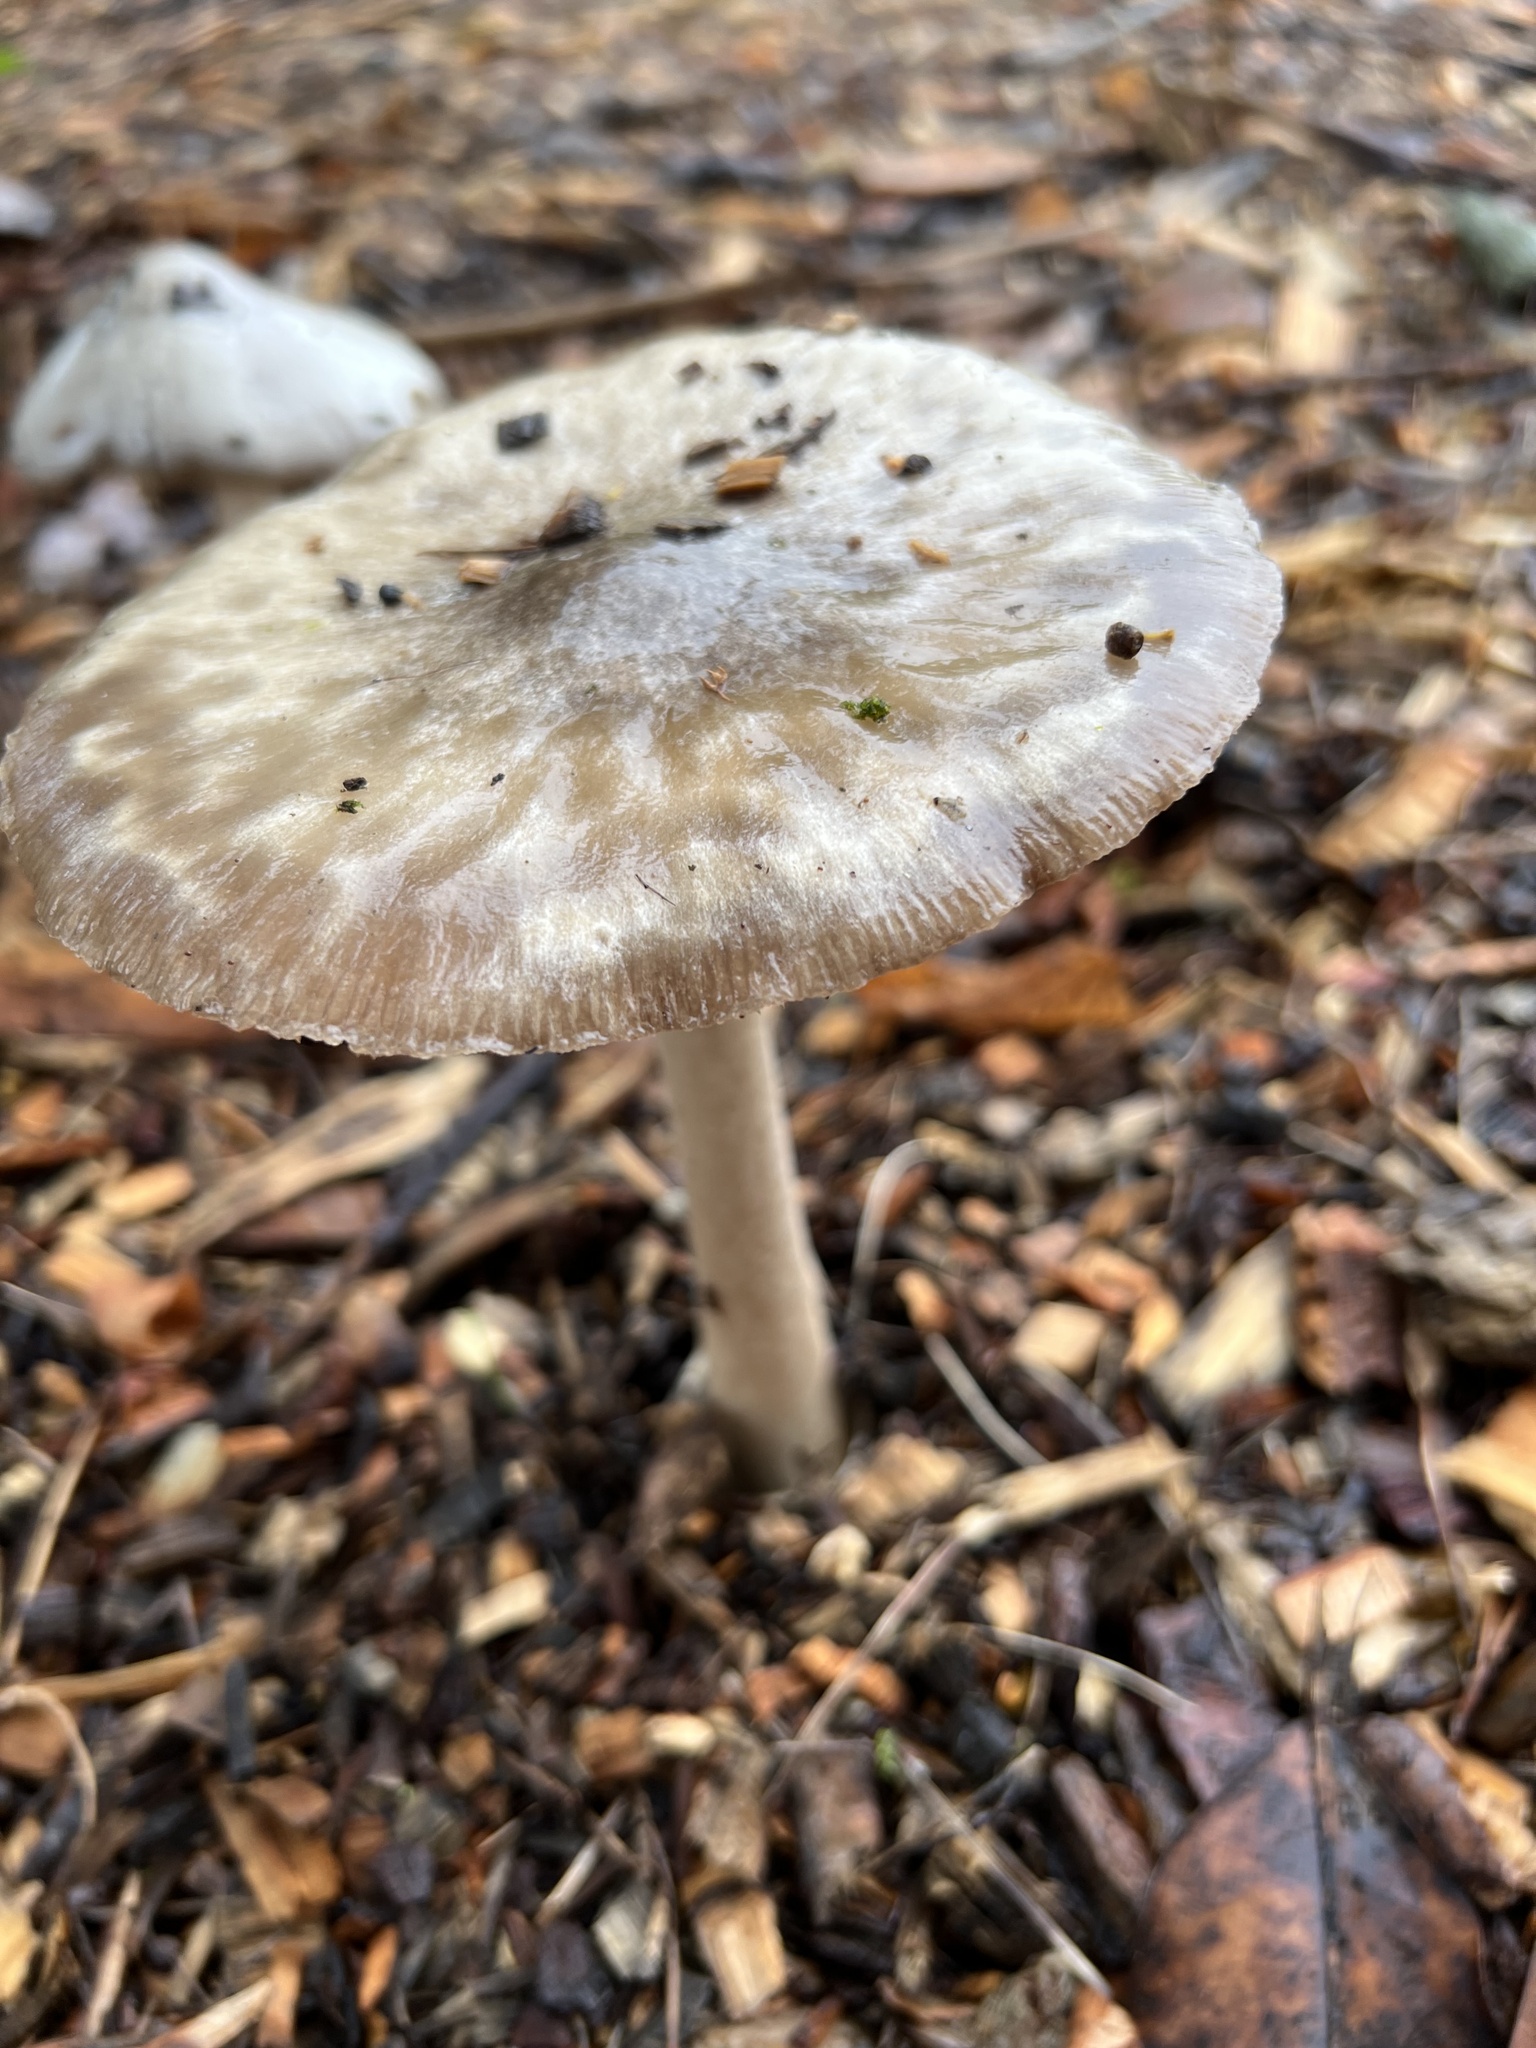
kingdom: Fungi
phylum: Basidiomycota
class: Agaricomycetes
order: Agaricales
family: Pluteaceae
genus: Volvopluteus
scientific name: Volvopluteus gloiocephalus
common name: Stubble rosegill
